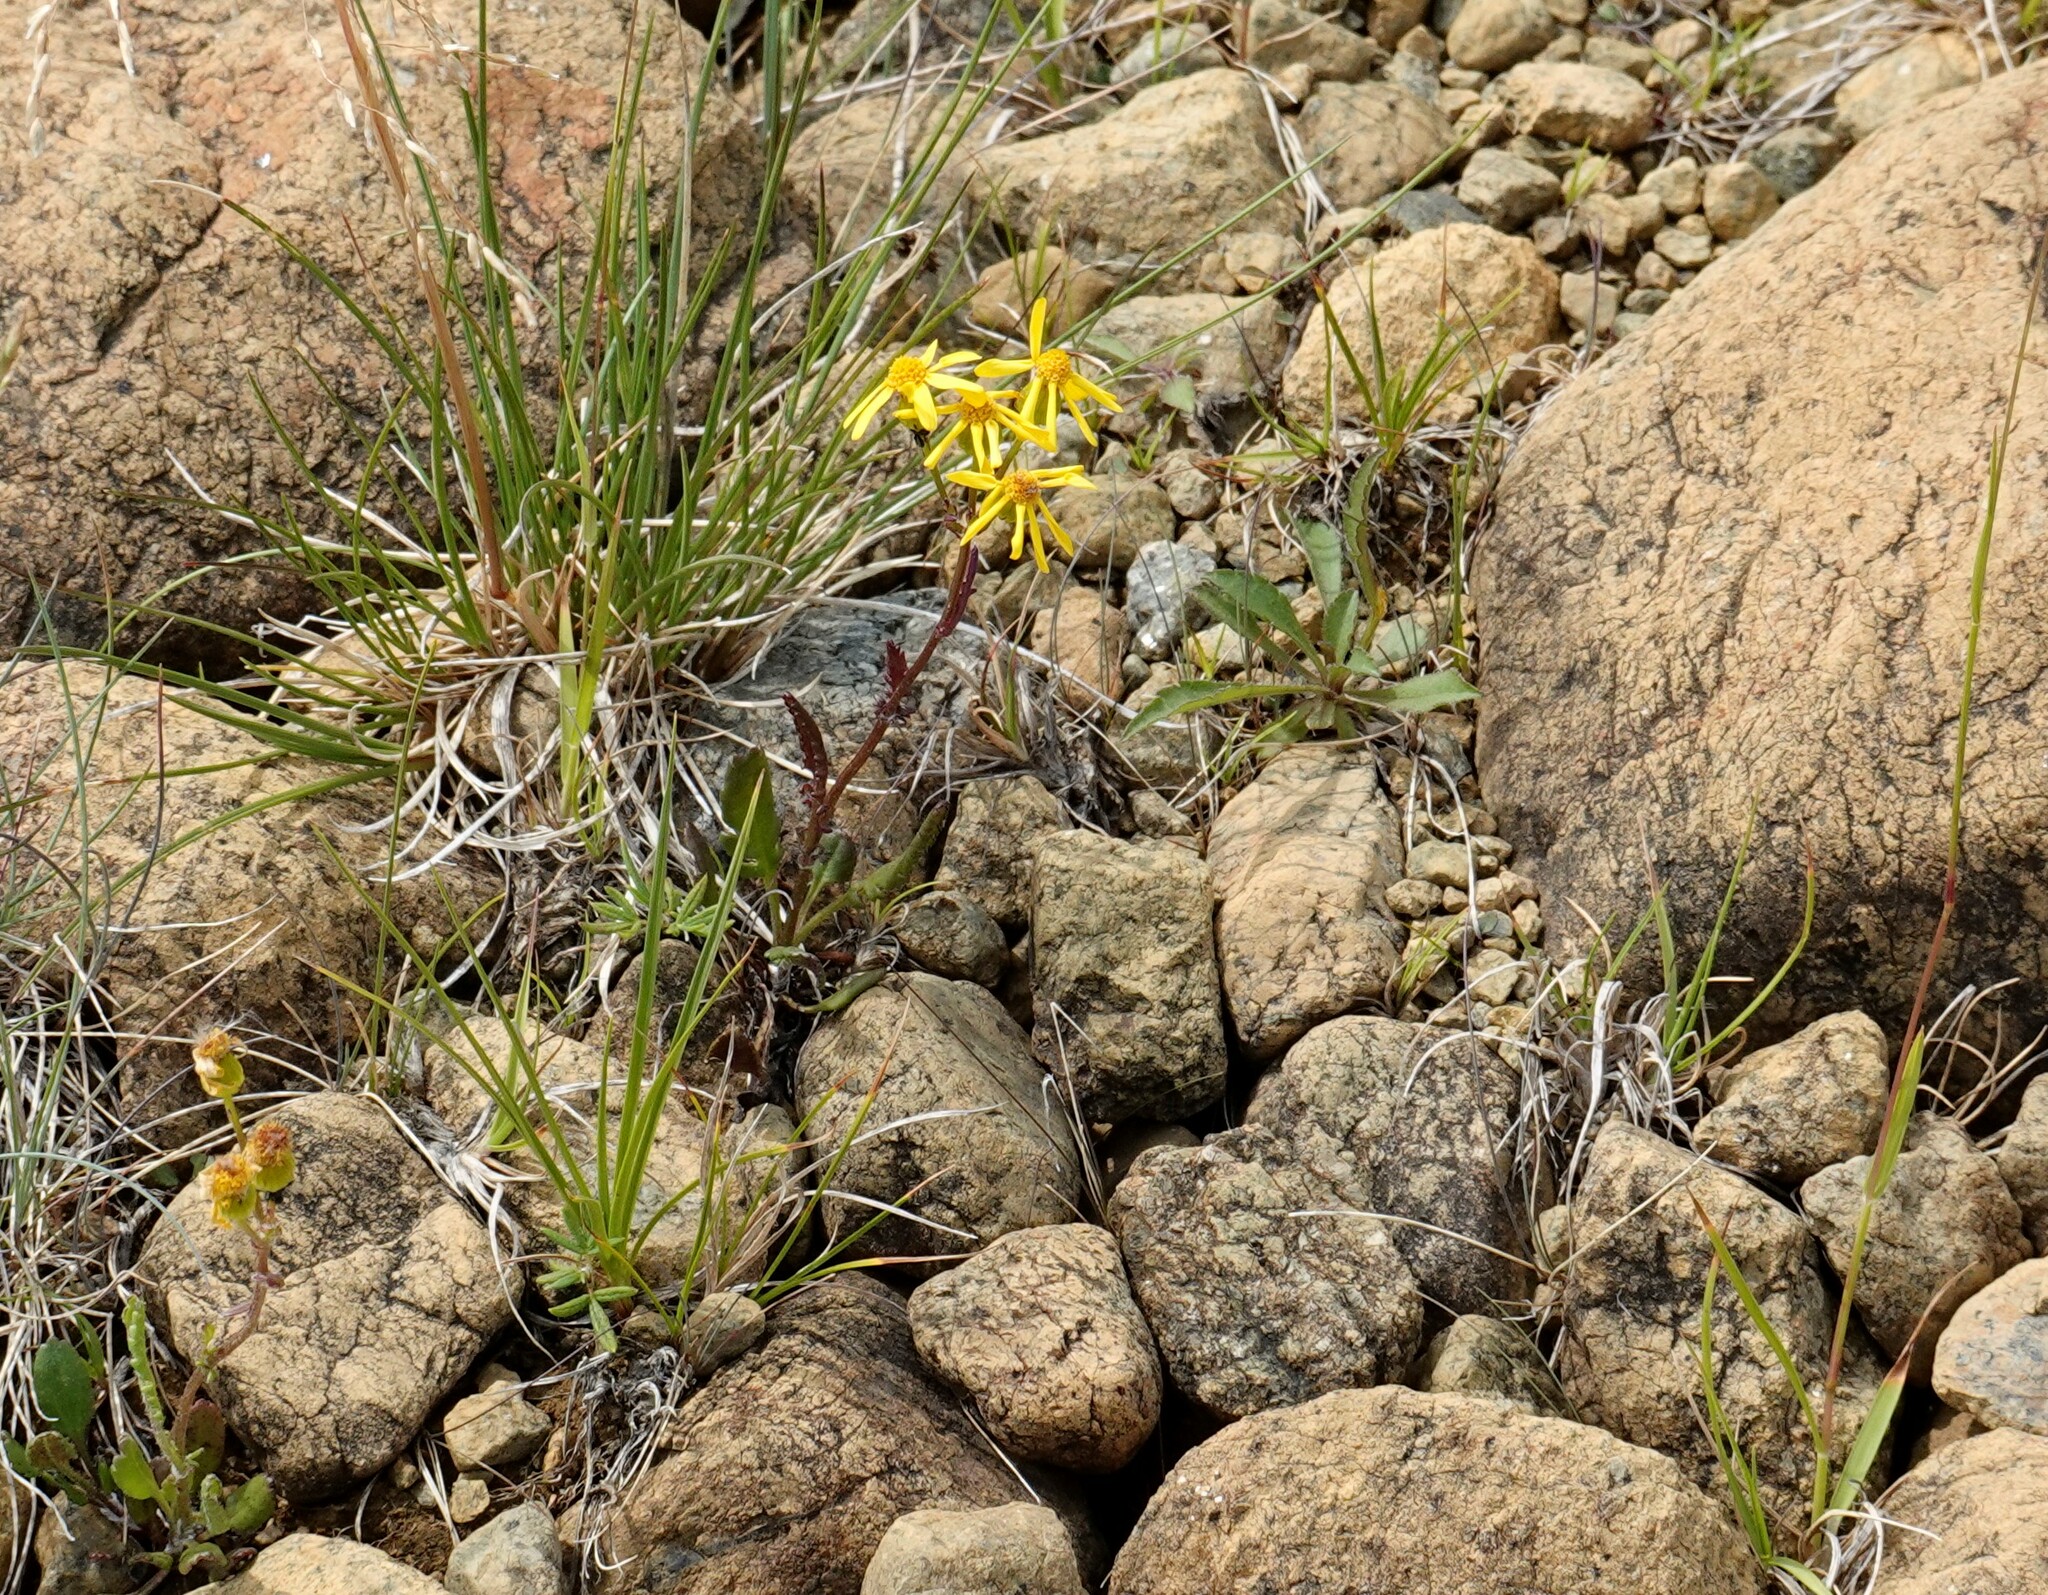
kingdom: Plantae
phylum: Tracheophyta
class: Magnoliopsida
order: Asterales
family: Asteraceae
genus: Packera
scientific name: Packera paupercula
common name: Balsam groundsel
